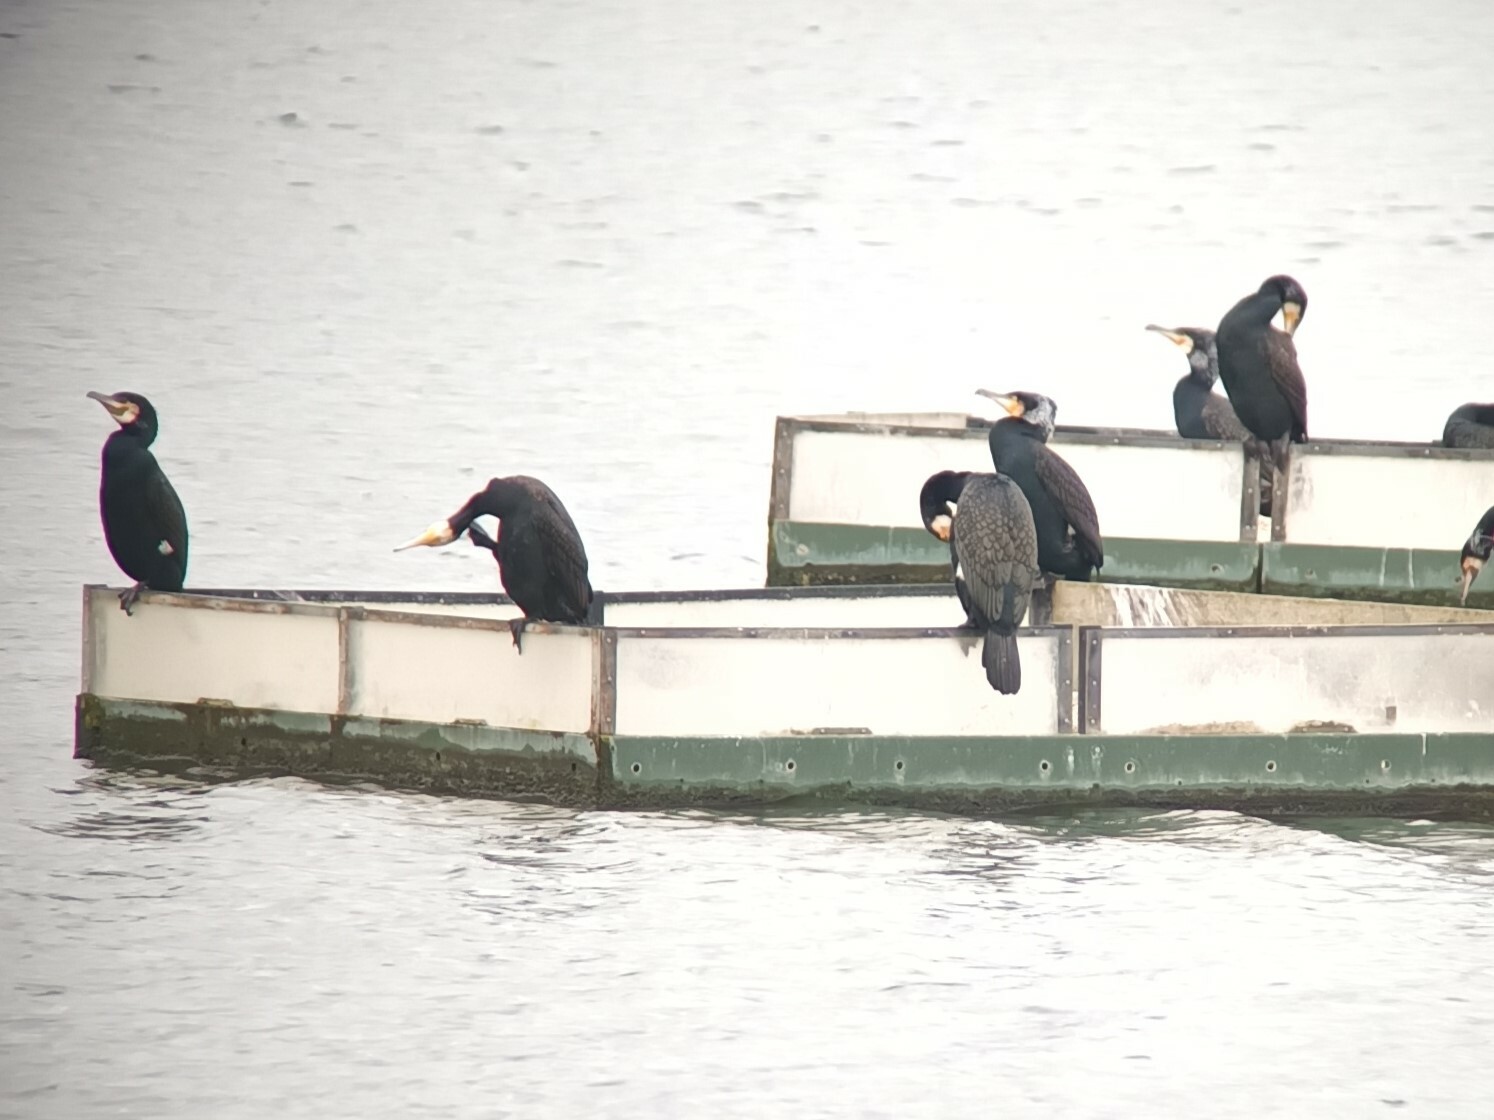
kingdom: Animalia
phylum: Chordata
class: Aves
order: Suliformes
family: Phalacrocoracidae
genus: Phalacrocorax
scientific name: Phalacrocorax carbo
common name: Great cormorant
